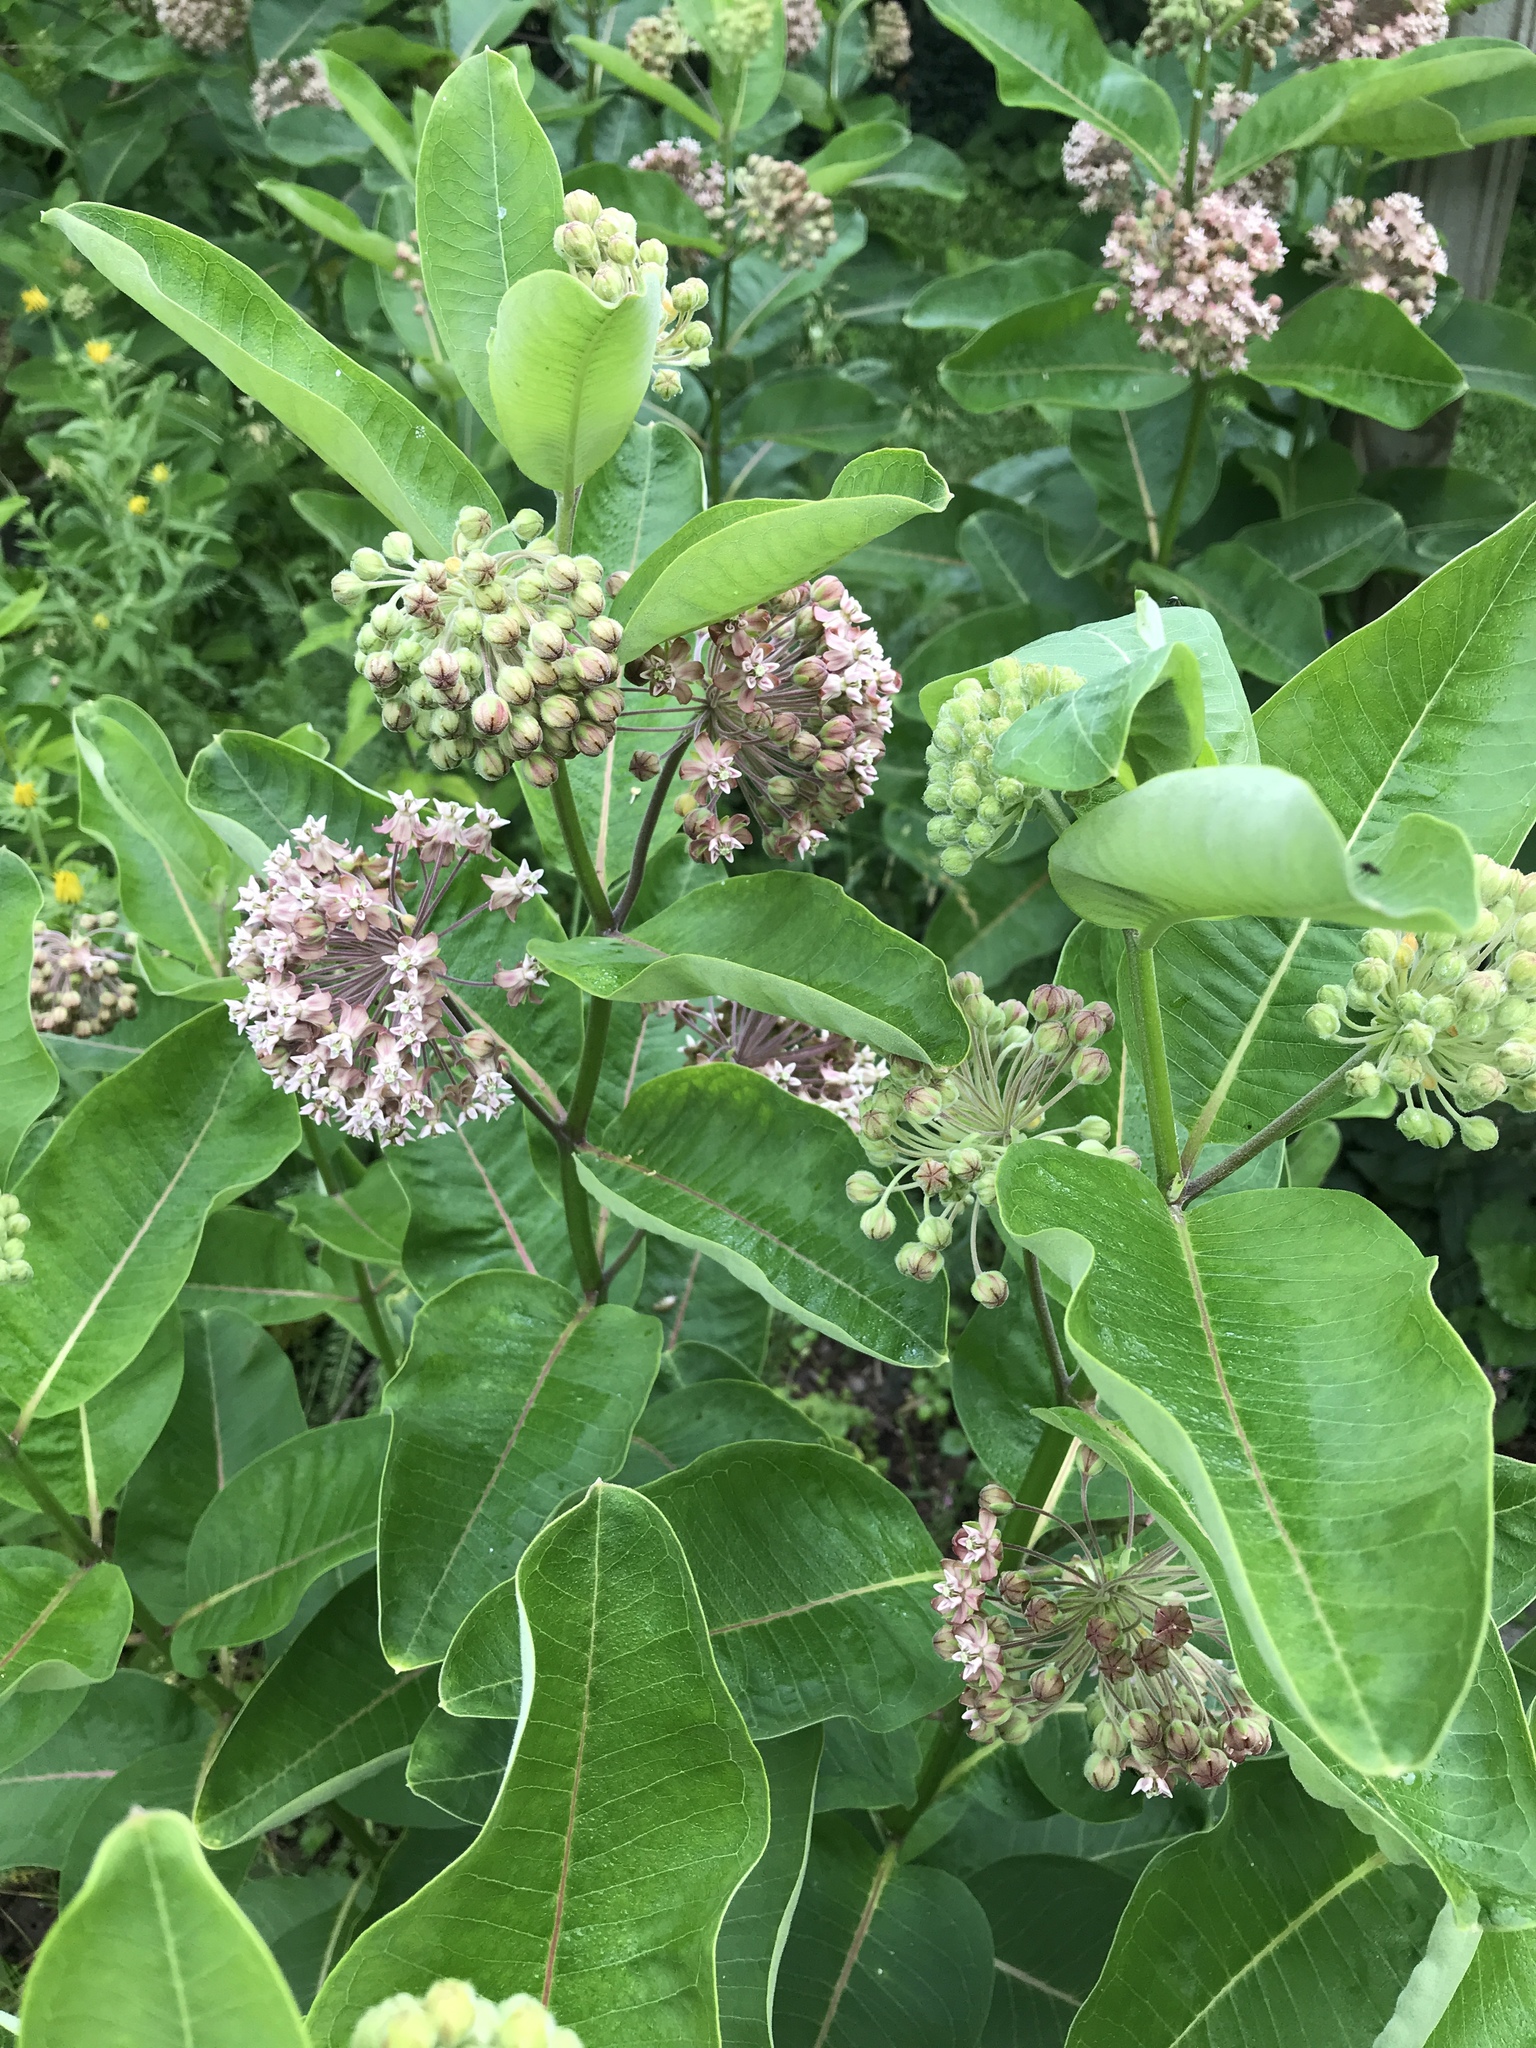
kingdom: Plantae
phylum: Tracheophyta
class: Magnoliopsida
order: Gentianales
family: Apocynaceae
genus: Asclepias
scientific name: Asclepias syriaca
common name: Common milkweed
